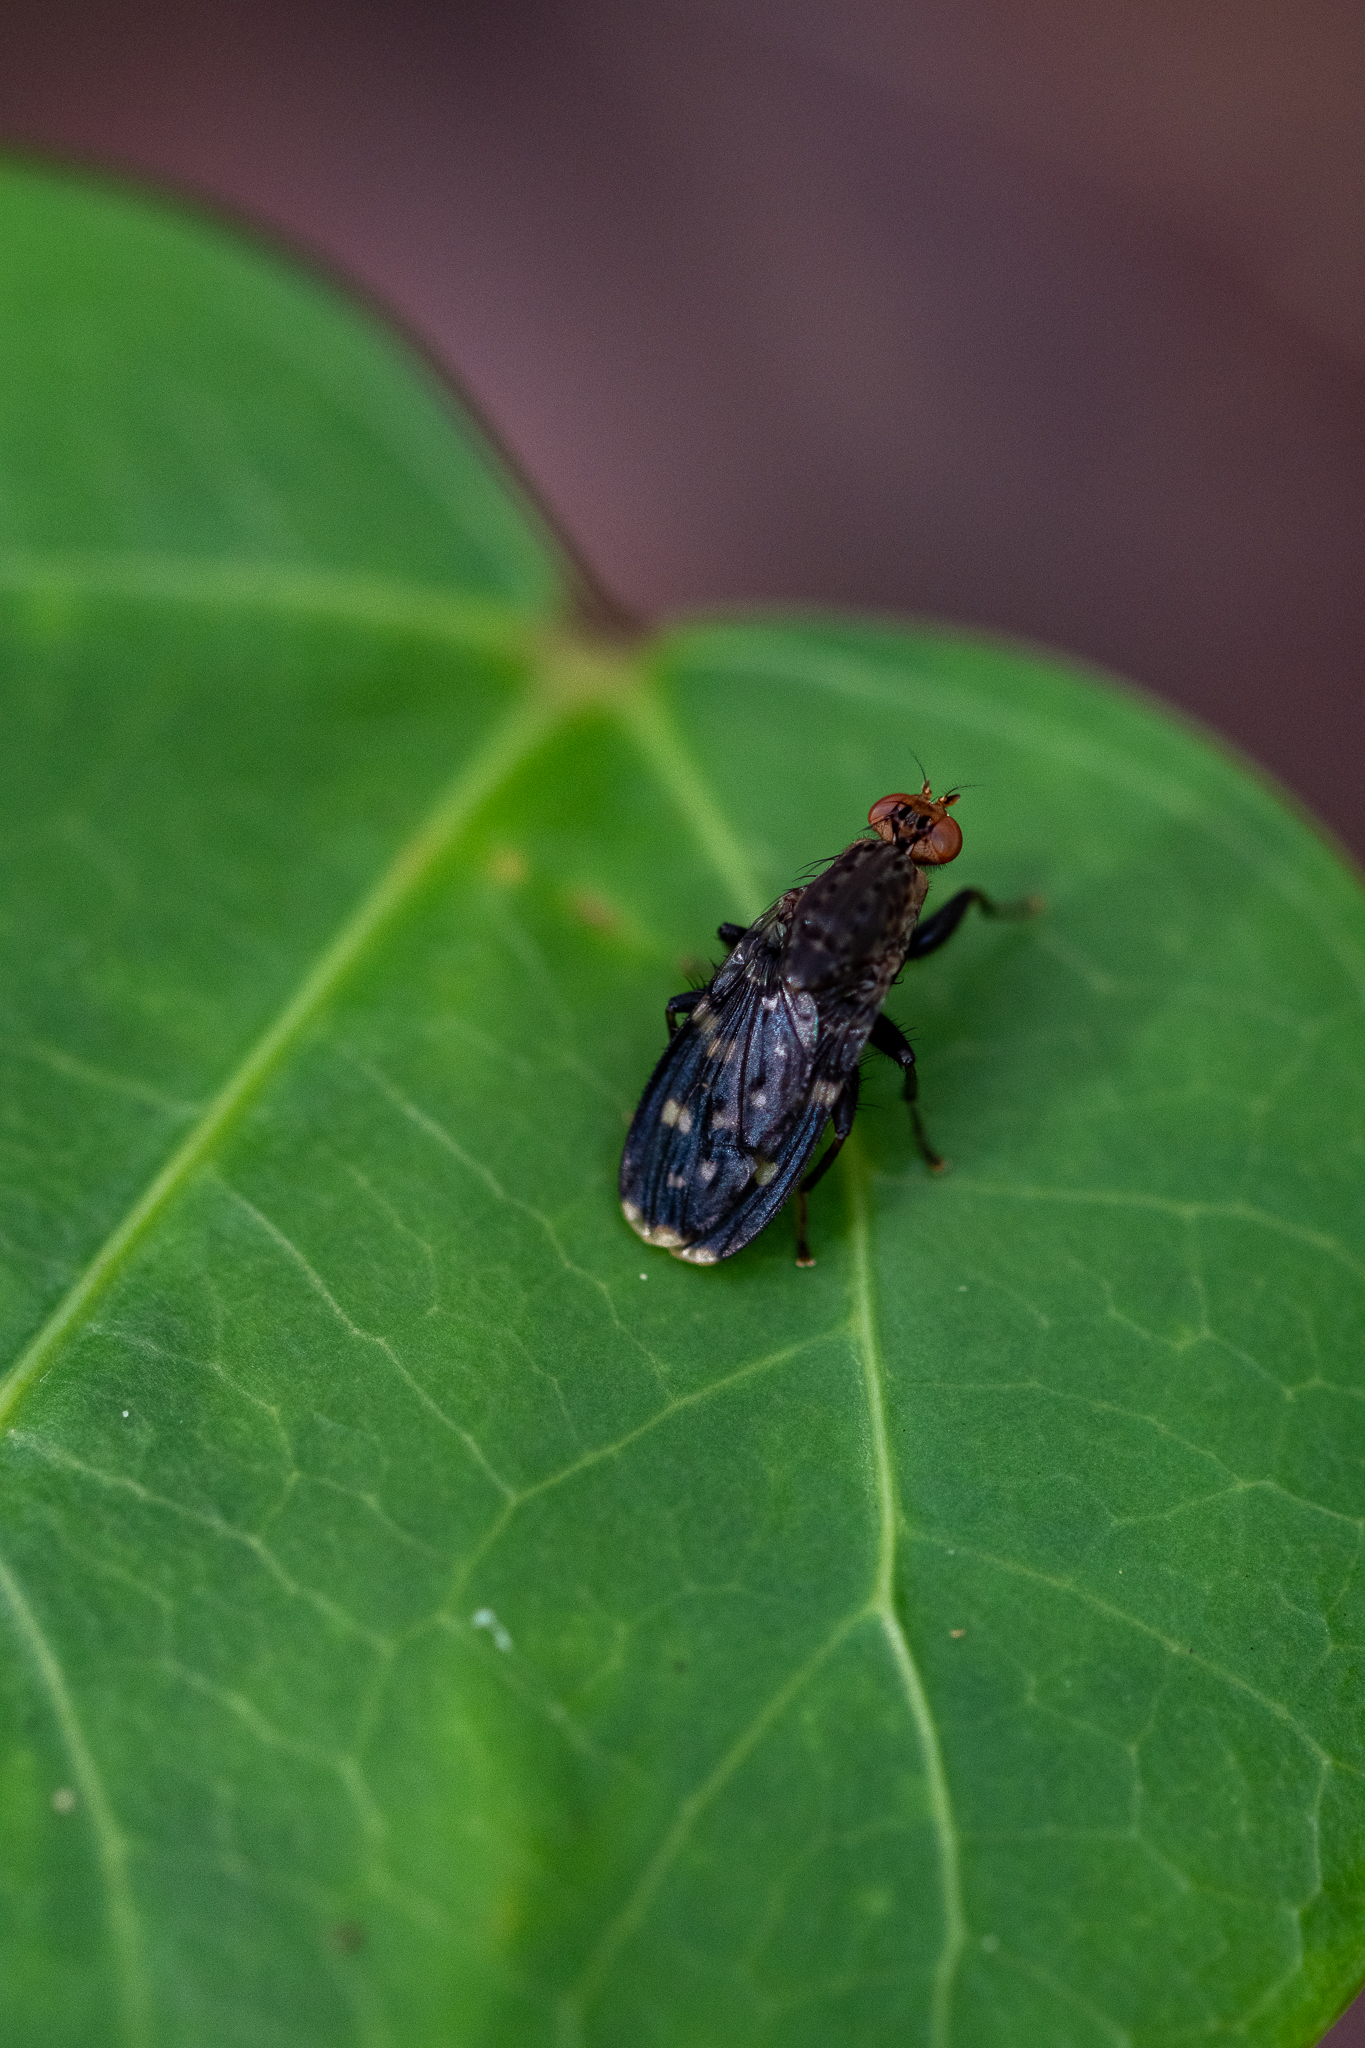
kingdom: Animalia
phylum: Arthropoda
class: Insecta
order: Diptera
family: Heleomyzidae
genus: Suillia
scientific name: Suillia picta
